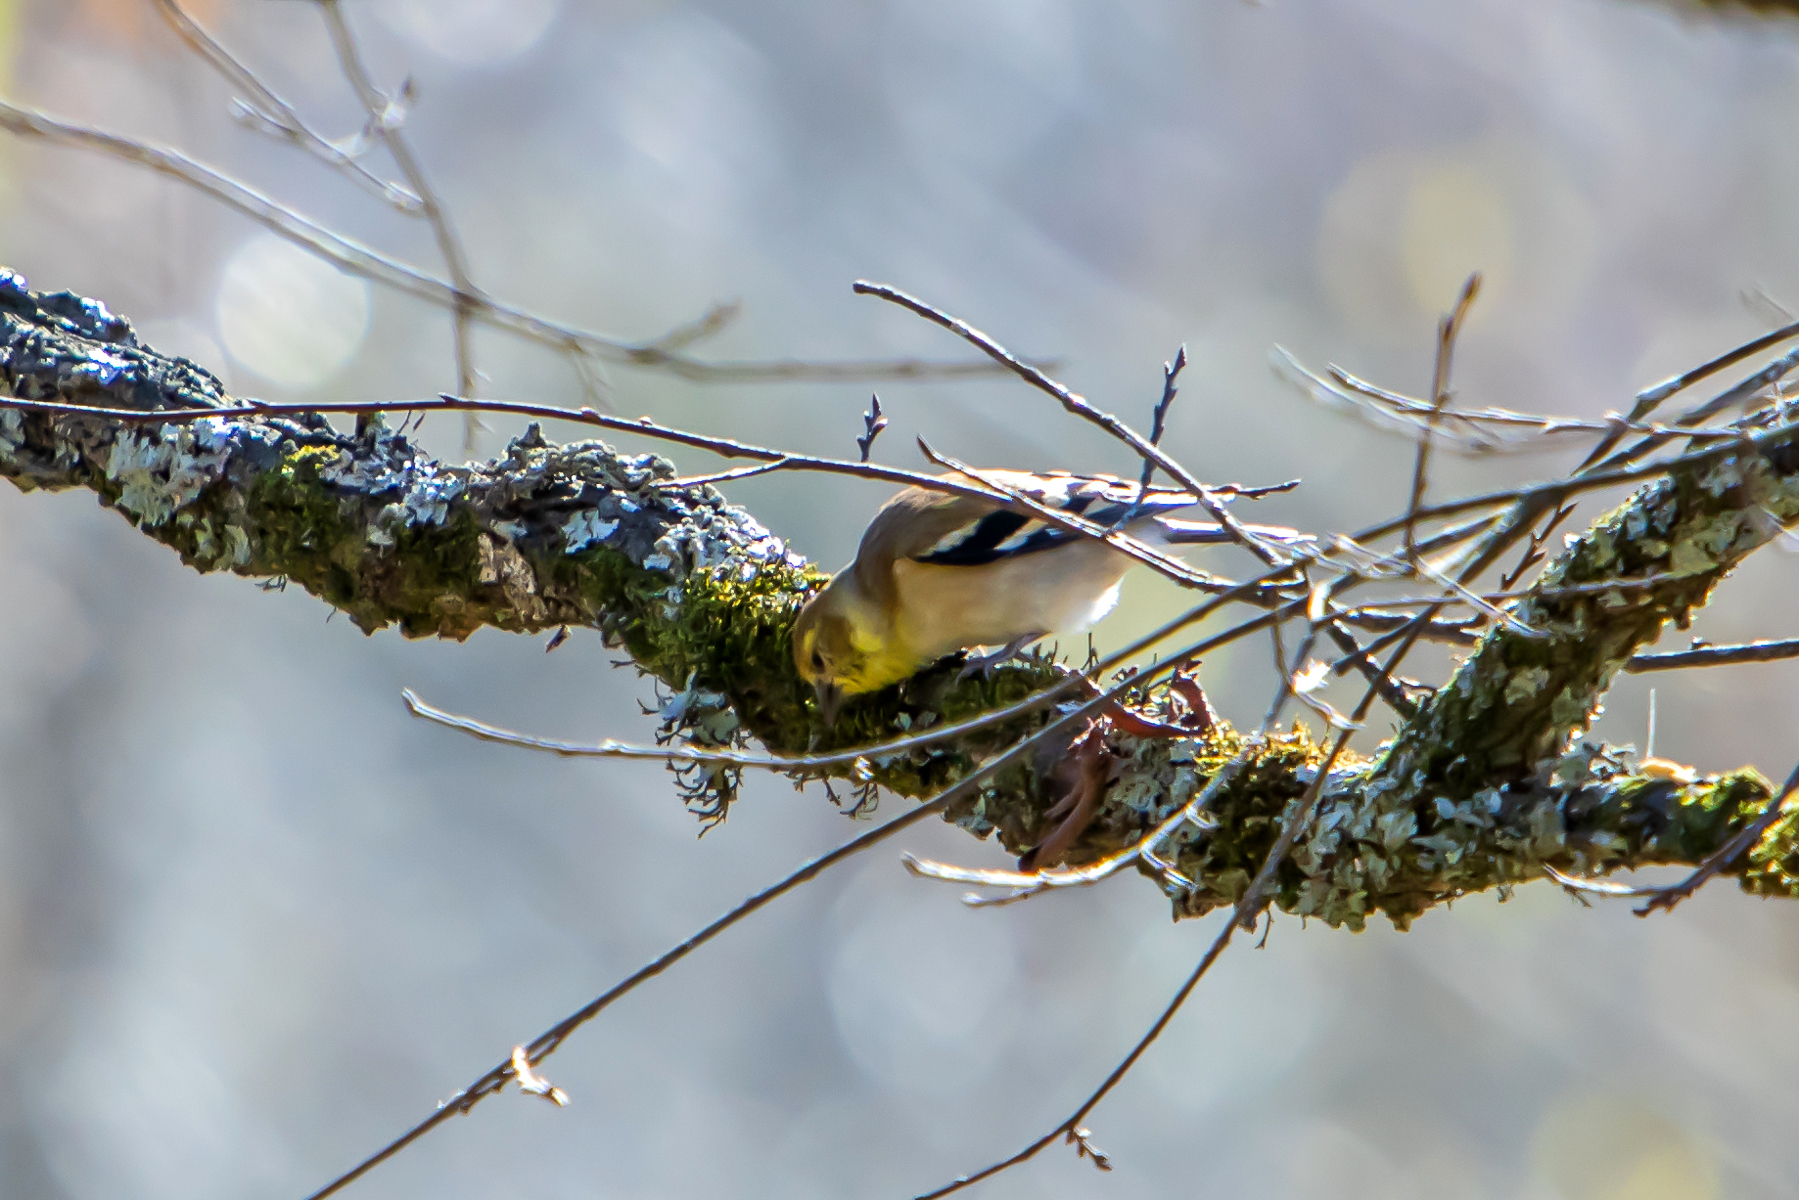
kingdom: Animalia
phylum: Chordata
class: Aves
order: Passeriformes
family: Fringillidae
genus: Spinus
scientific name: Spinus tristis
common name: American goldfinch
